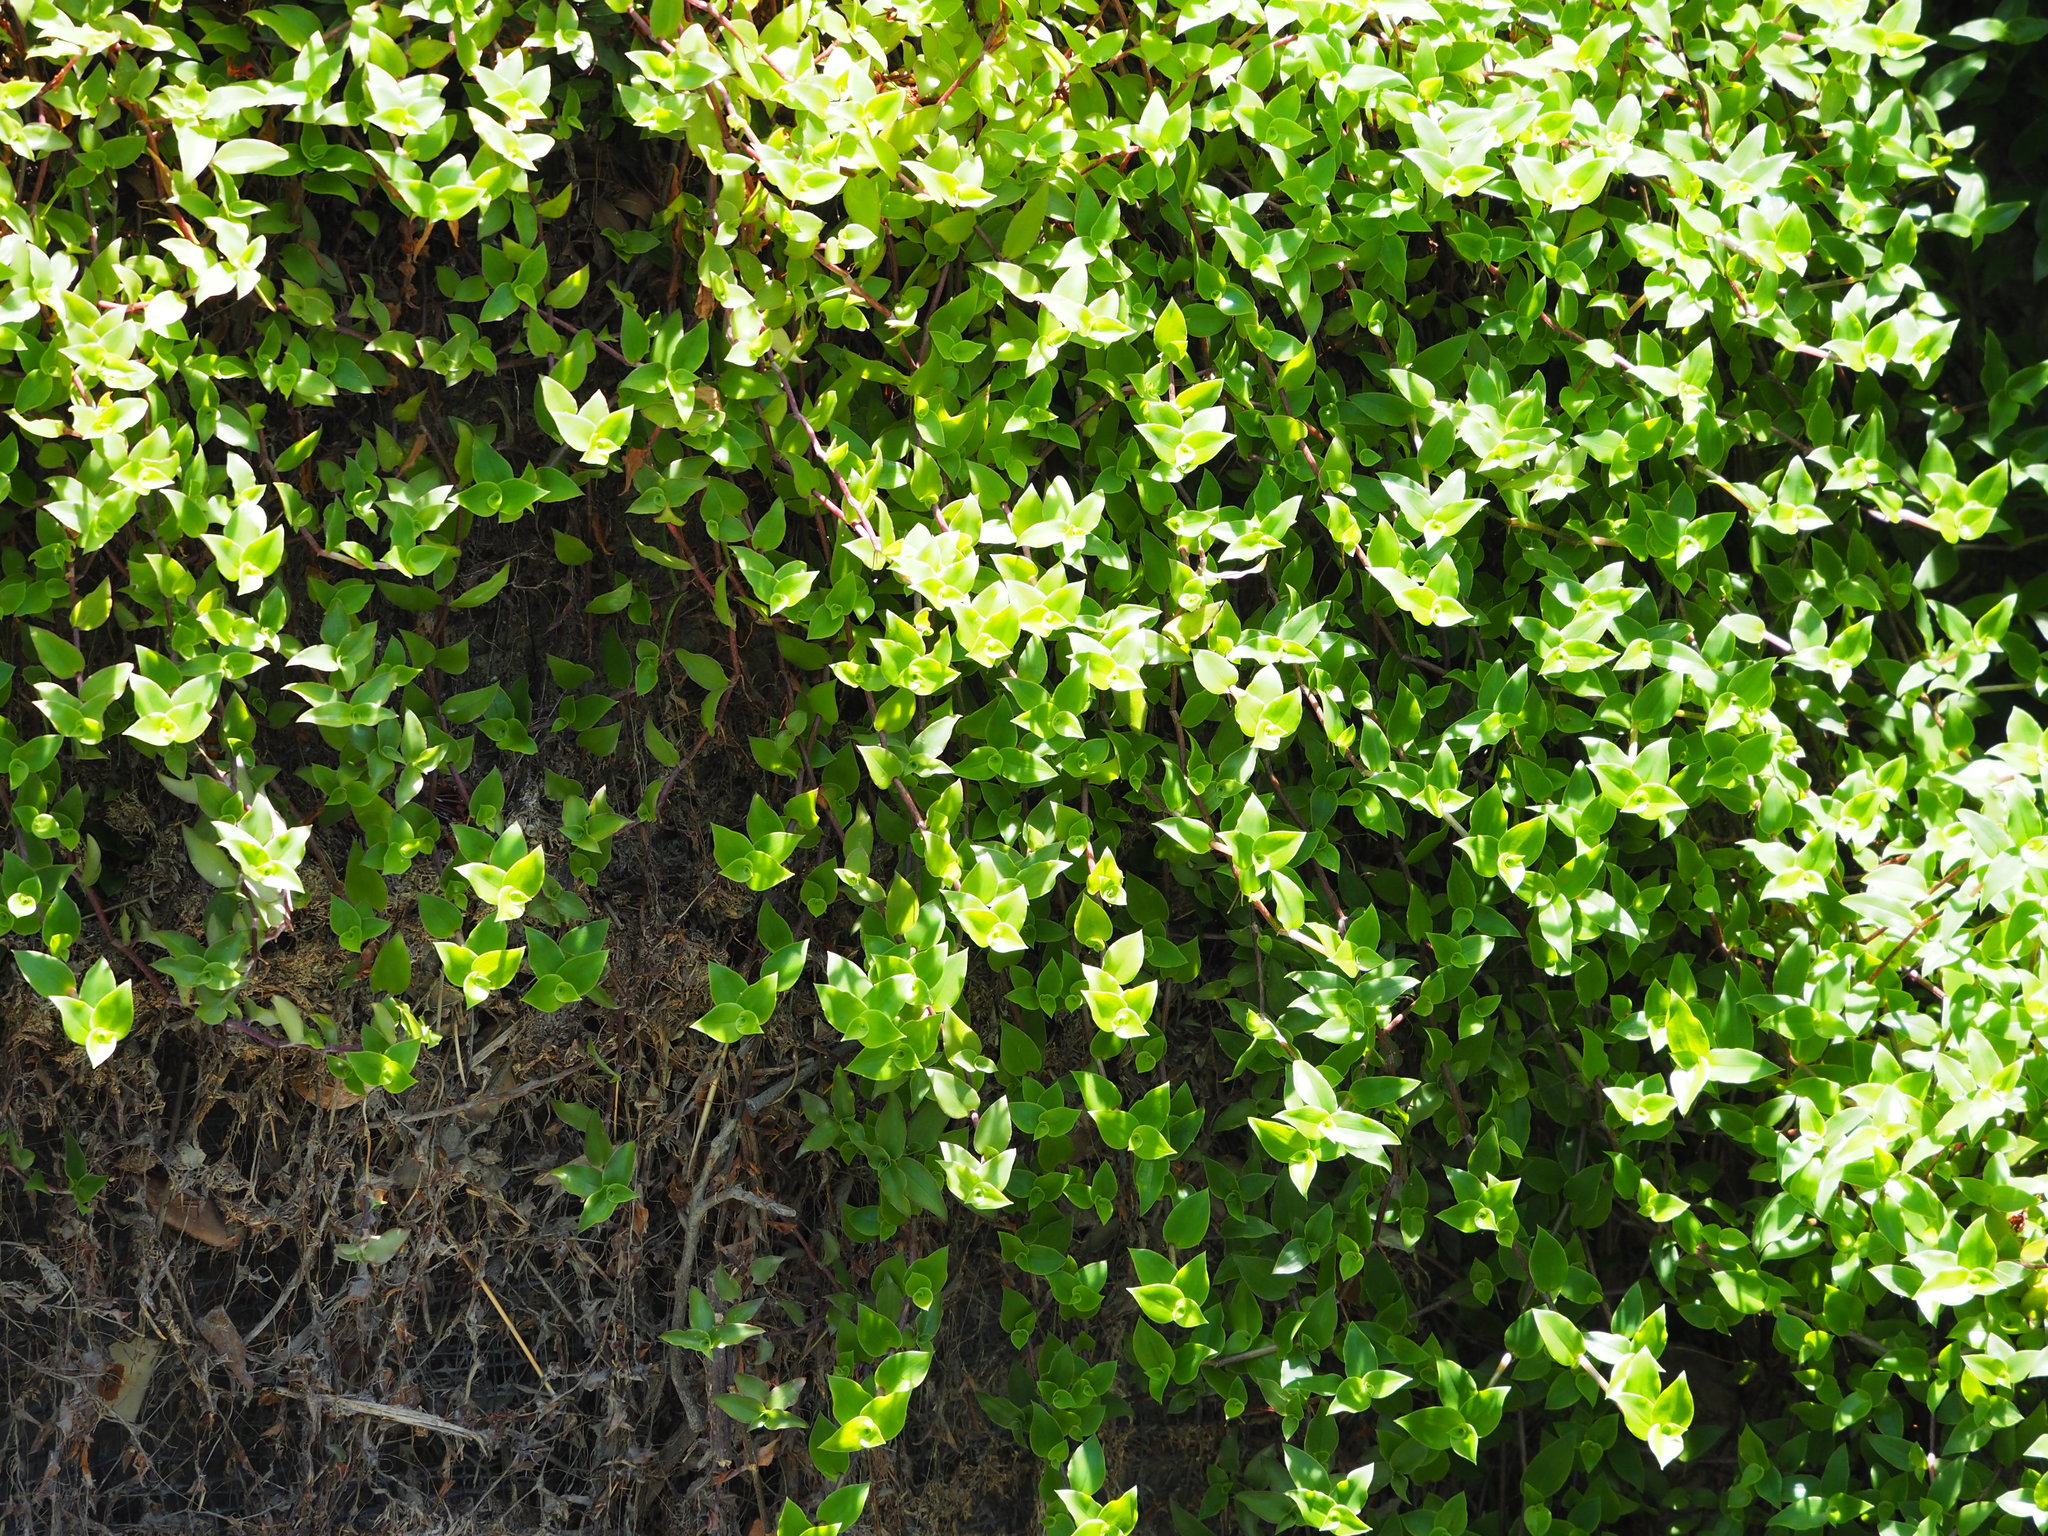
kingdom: Plantae
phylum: Tracheophyta
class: Liliopsida
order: Commelinales
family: Commelinaceae
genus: Callisia
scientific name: Callisia repens
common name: Creeping inchplant
